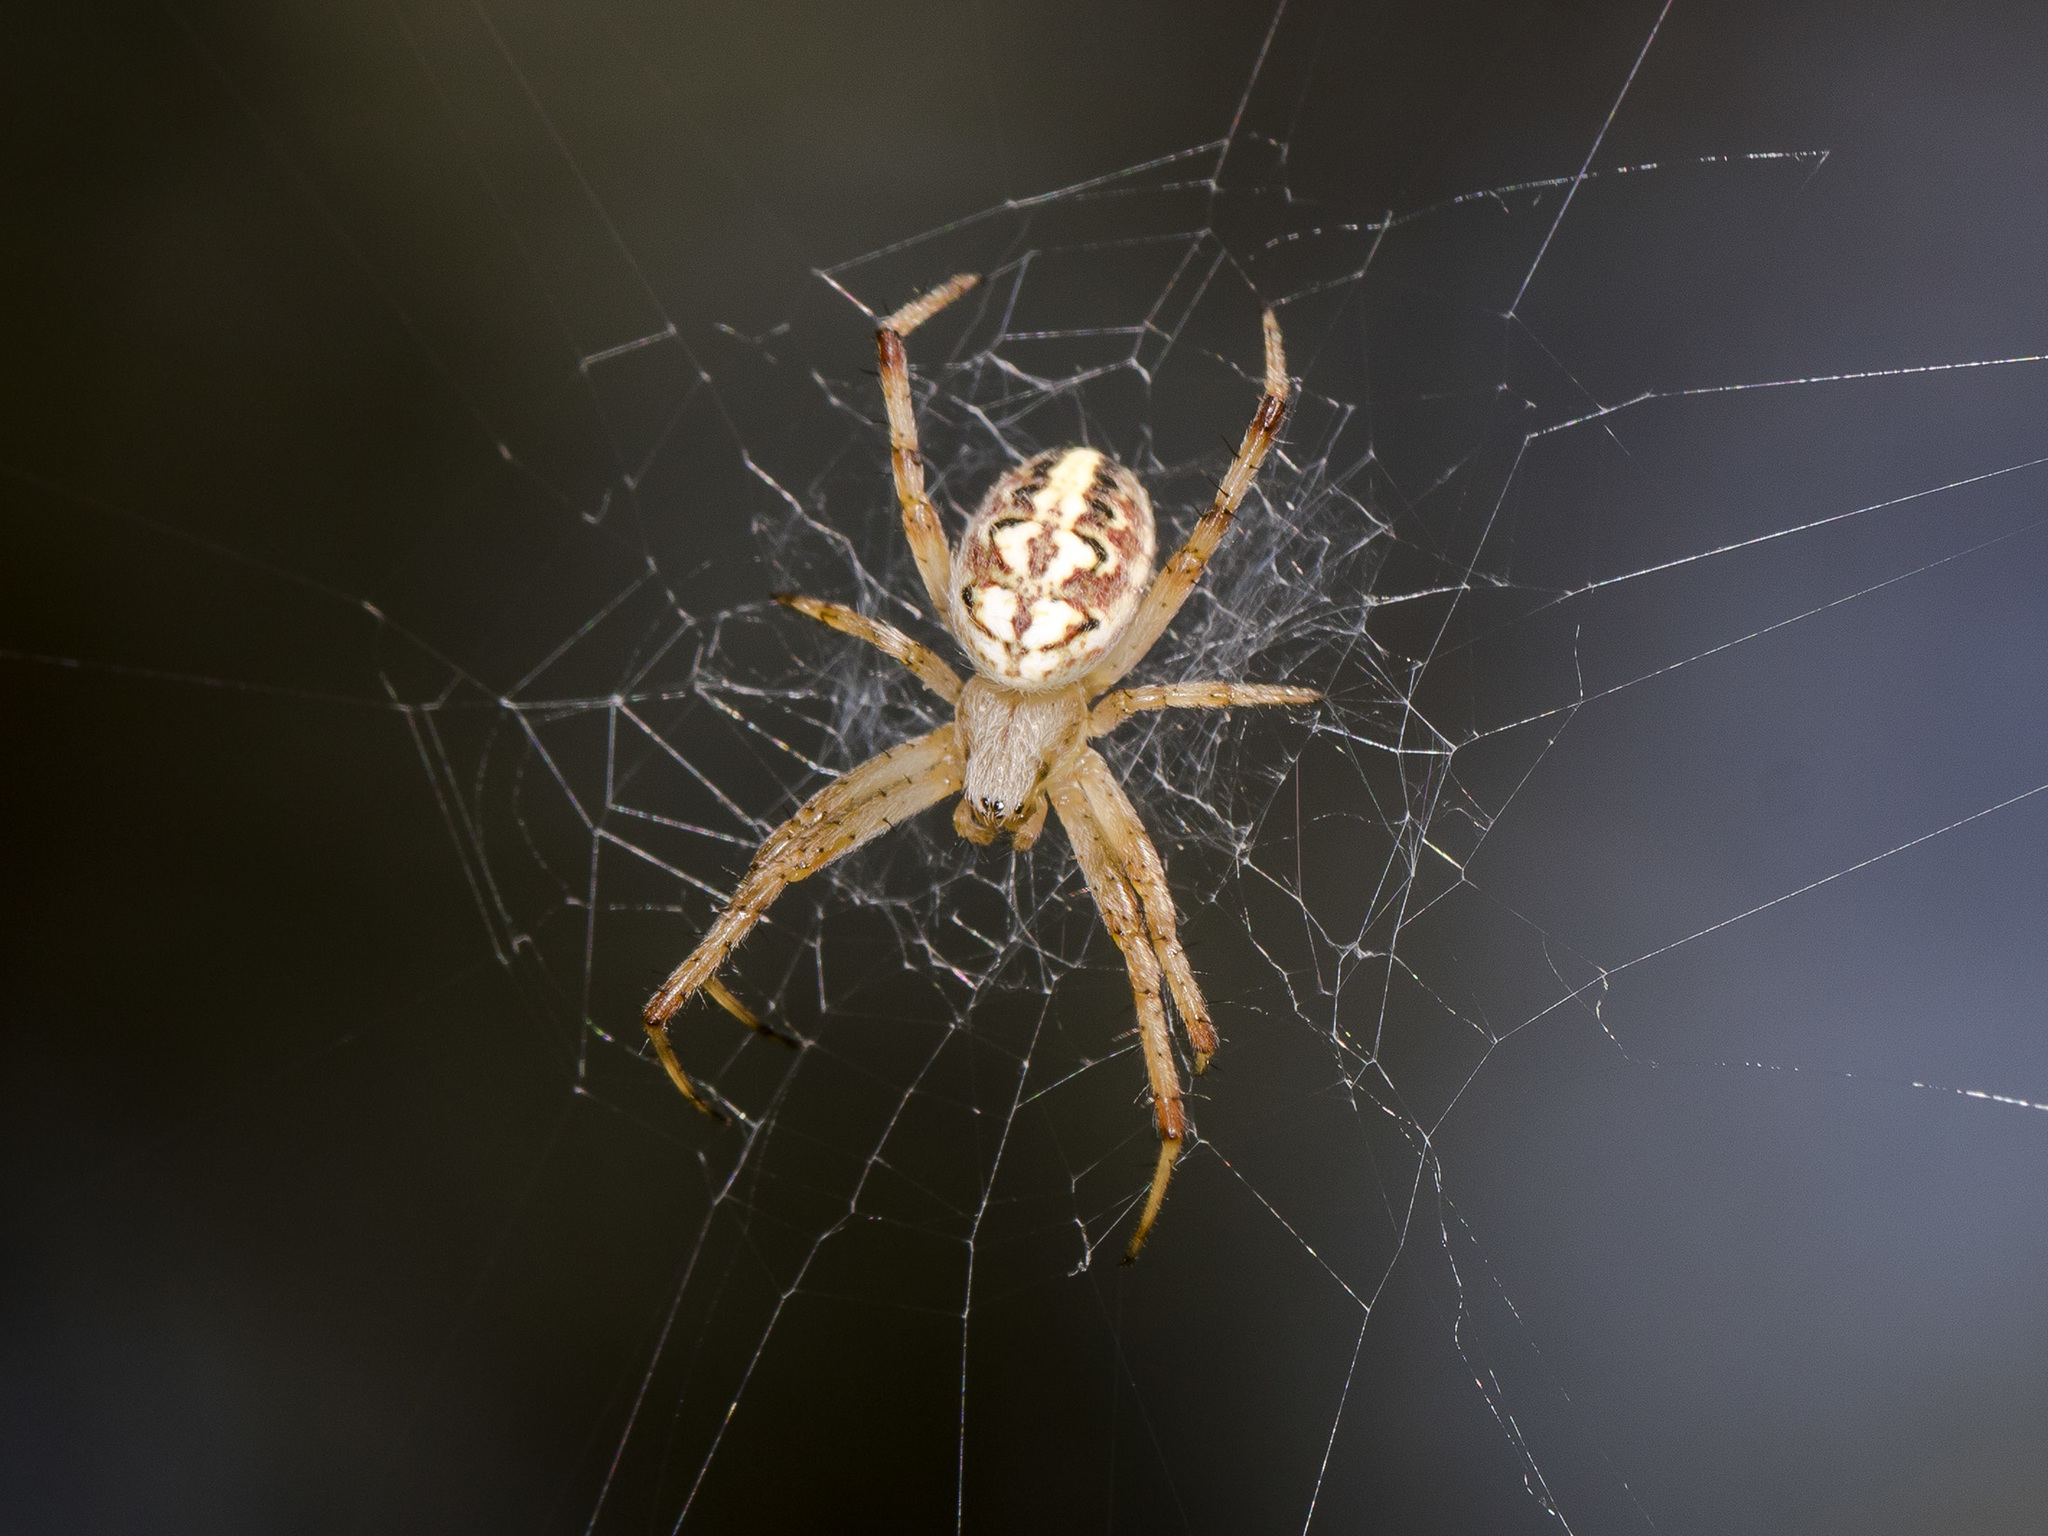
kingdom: Animalia
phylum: Arthropoda
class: Arachnida
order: Araneae
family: Araneidae
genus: Neoscona
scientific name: Neoscona adianta
